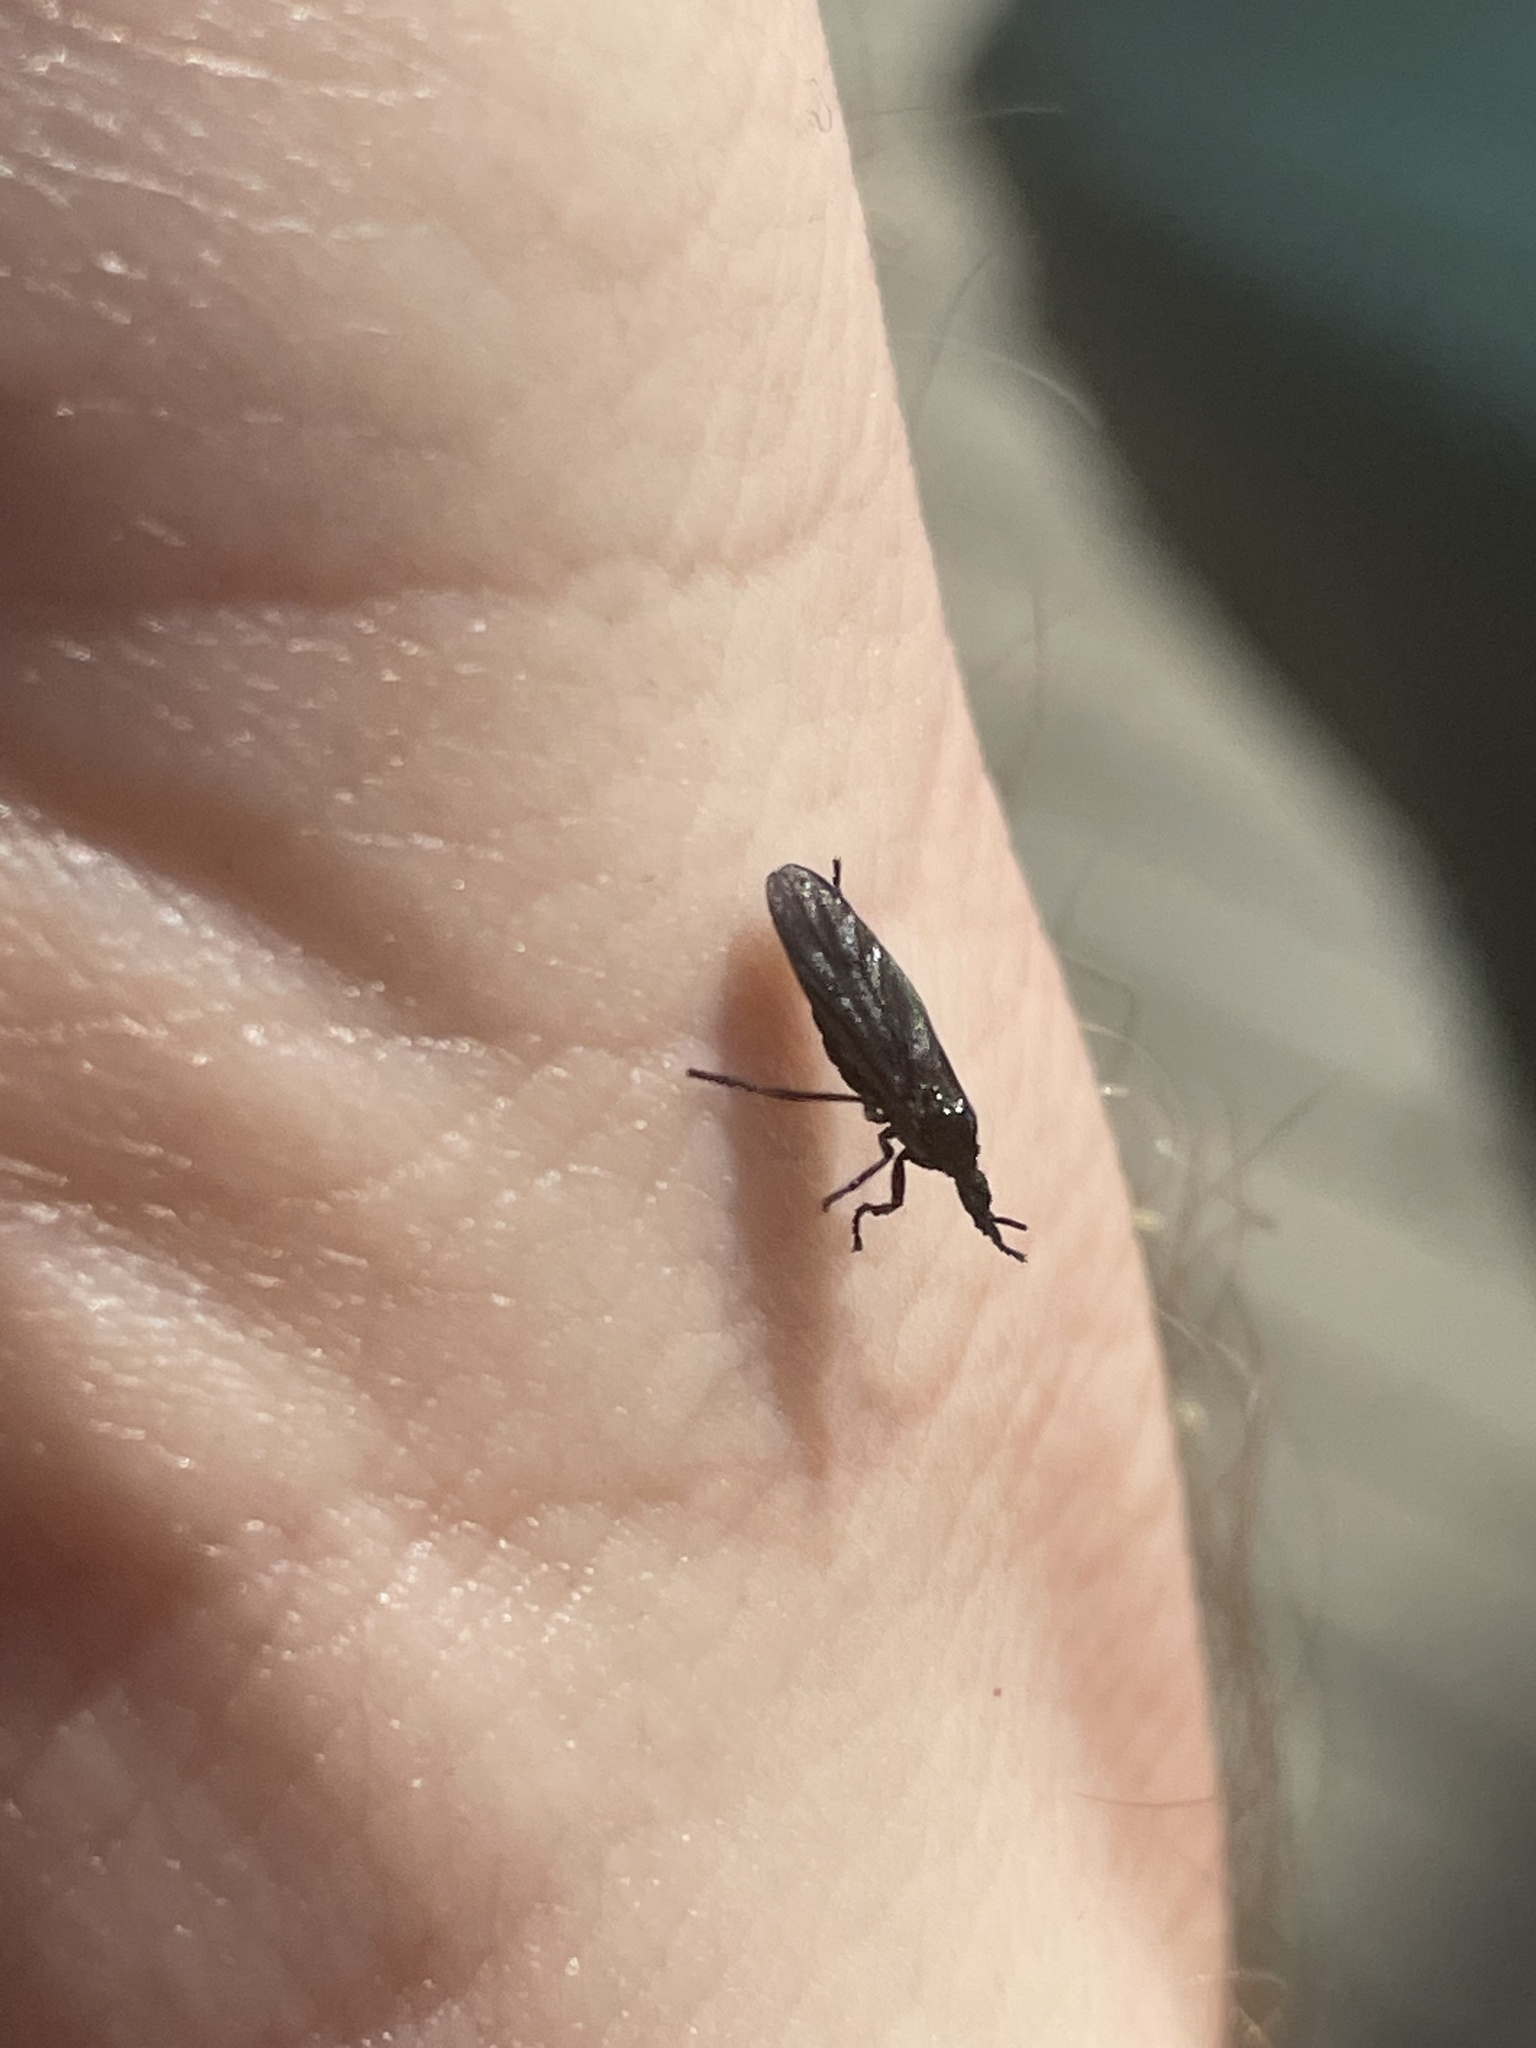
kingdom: Animalia
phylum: Arthropoda
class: Insecta
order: Diptera
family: Bibionidae
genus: Dilophus
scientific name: Dilophus orbatus
